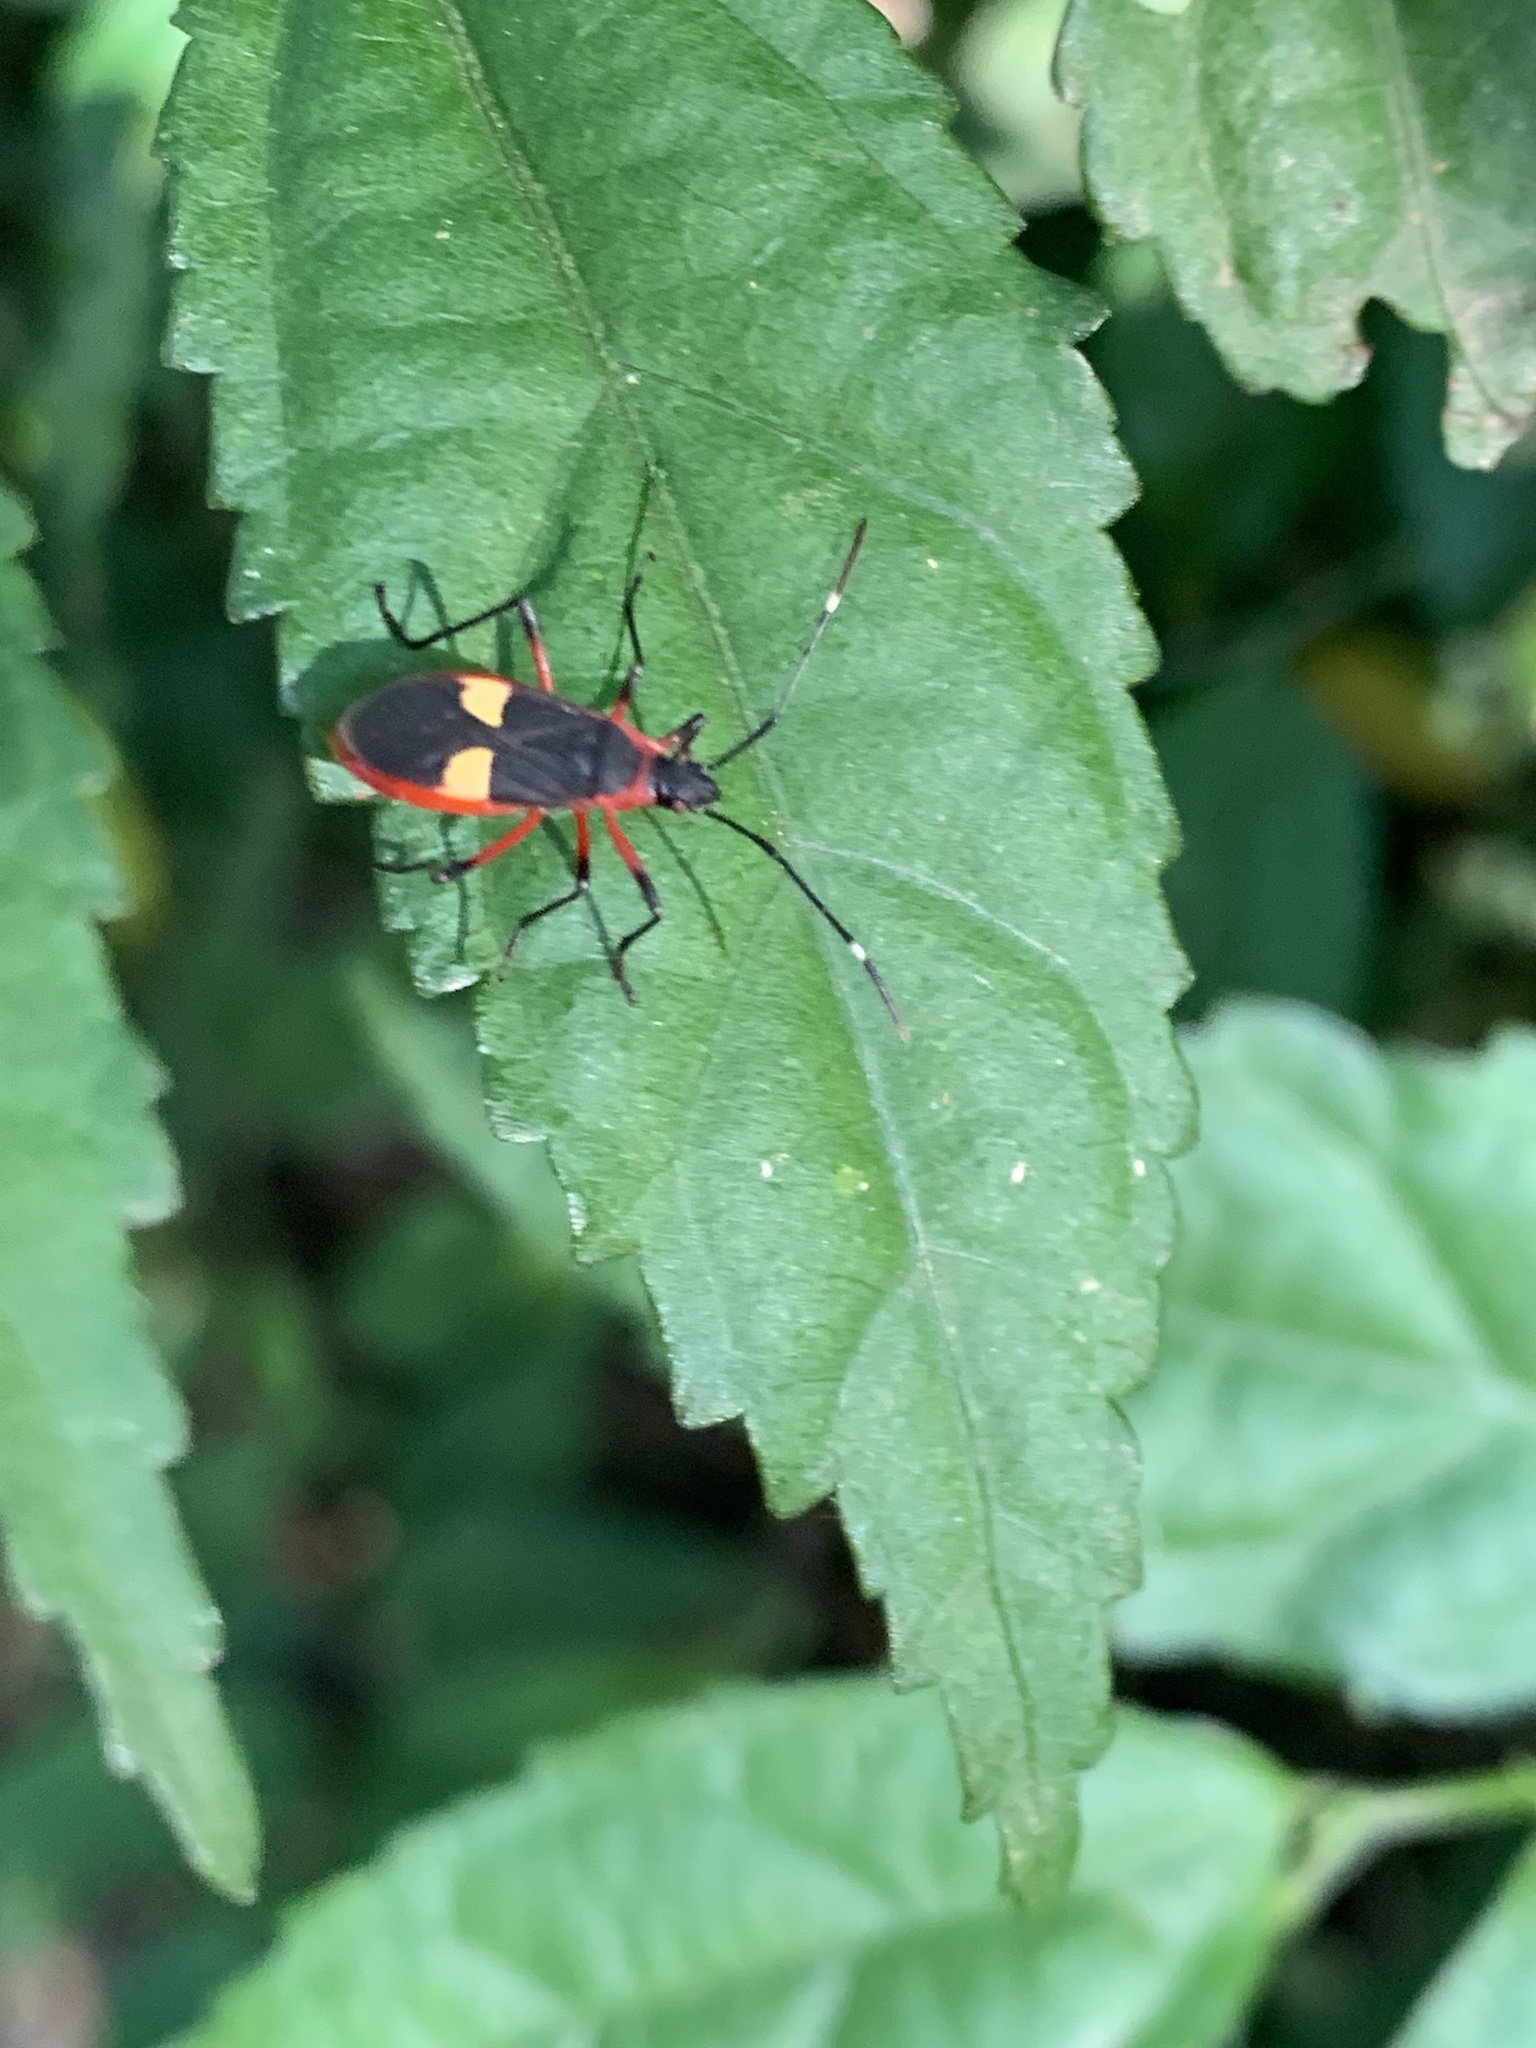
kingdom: Animalia
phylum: Arthropoda
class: Insecta
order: Hemiptera
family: Pyrrhocoridae
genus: Dysdercus
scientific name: Dysdercus albofasciatus
